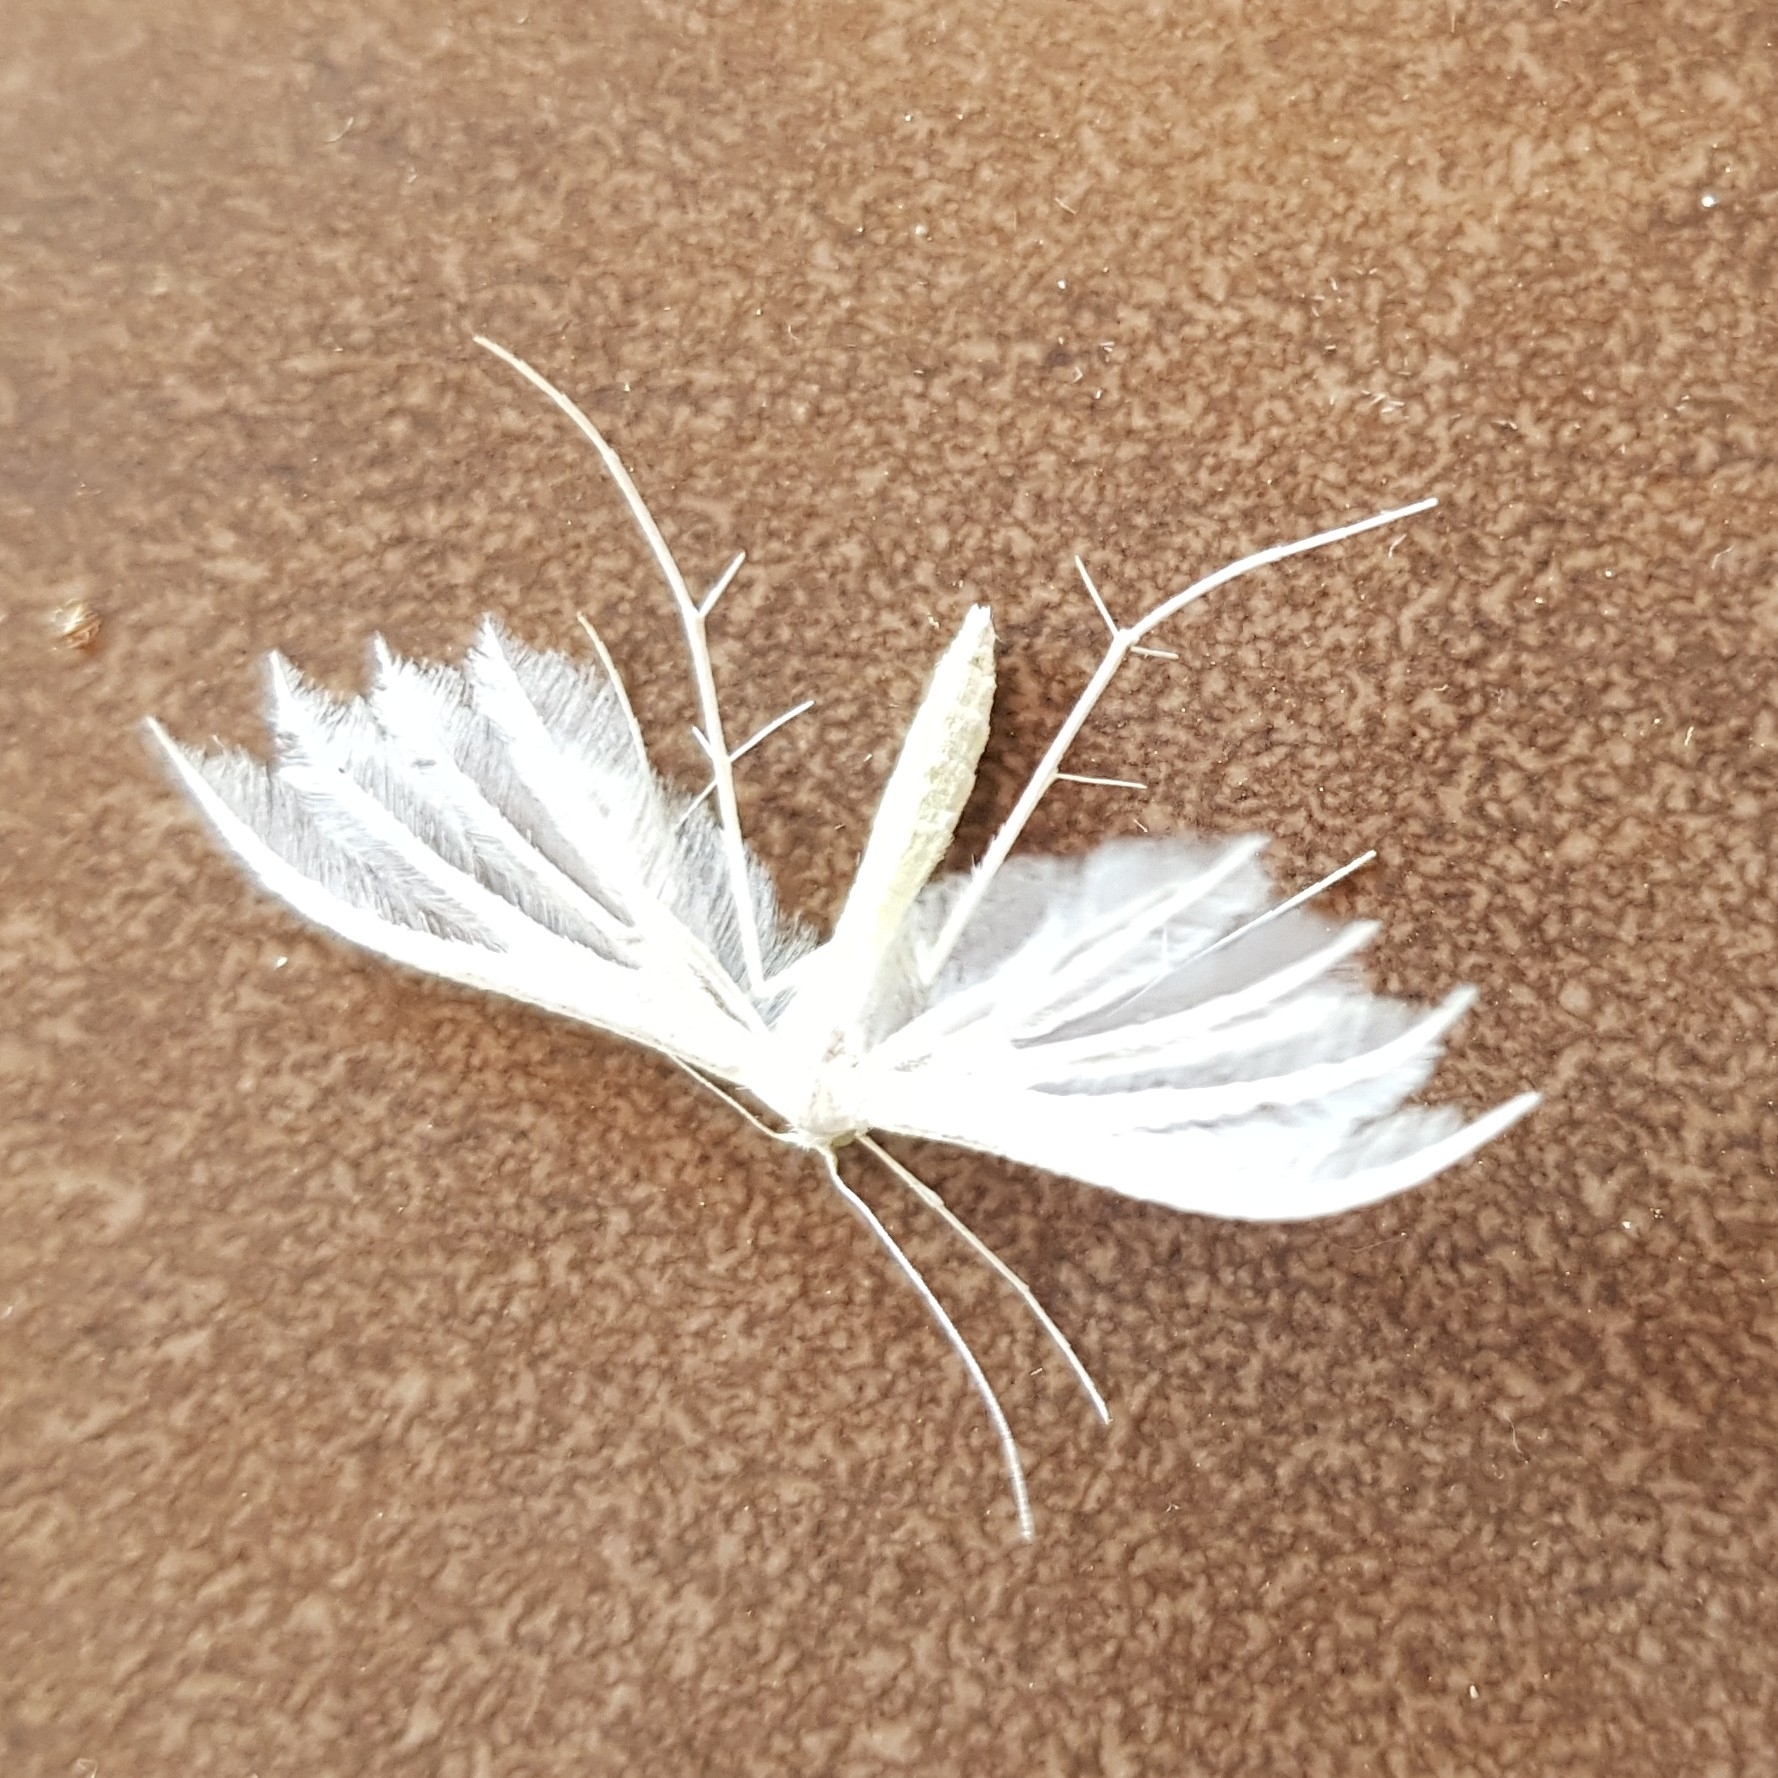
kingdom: Animalia
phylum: Arthropoda
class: Insecta
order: Lepidoptera
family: Pterophoridae
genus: Pterophorus
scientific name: Pterophorus pentadactyla
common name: White plume moth
